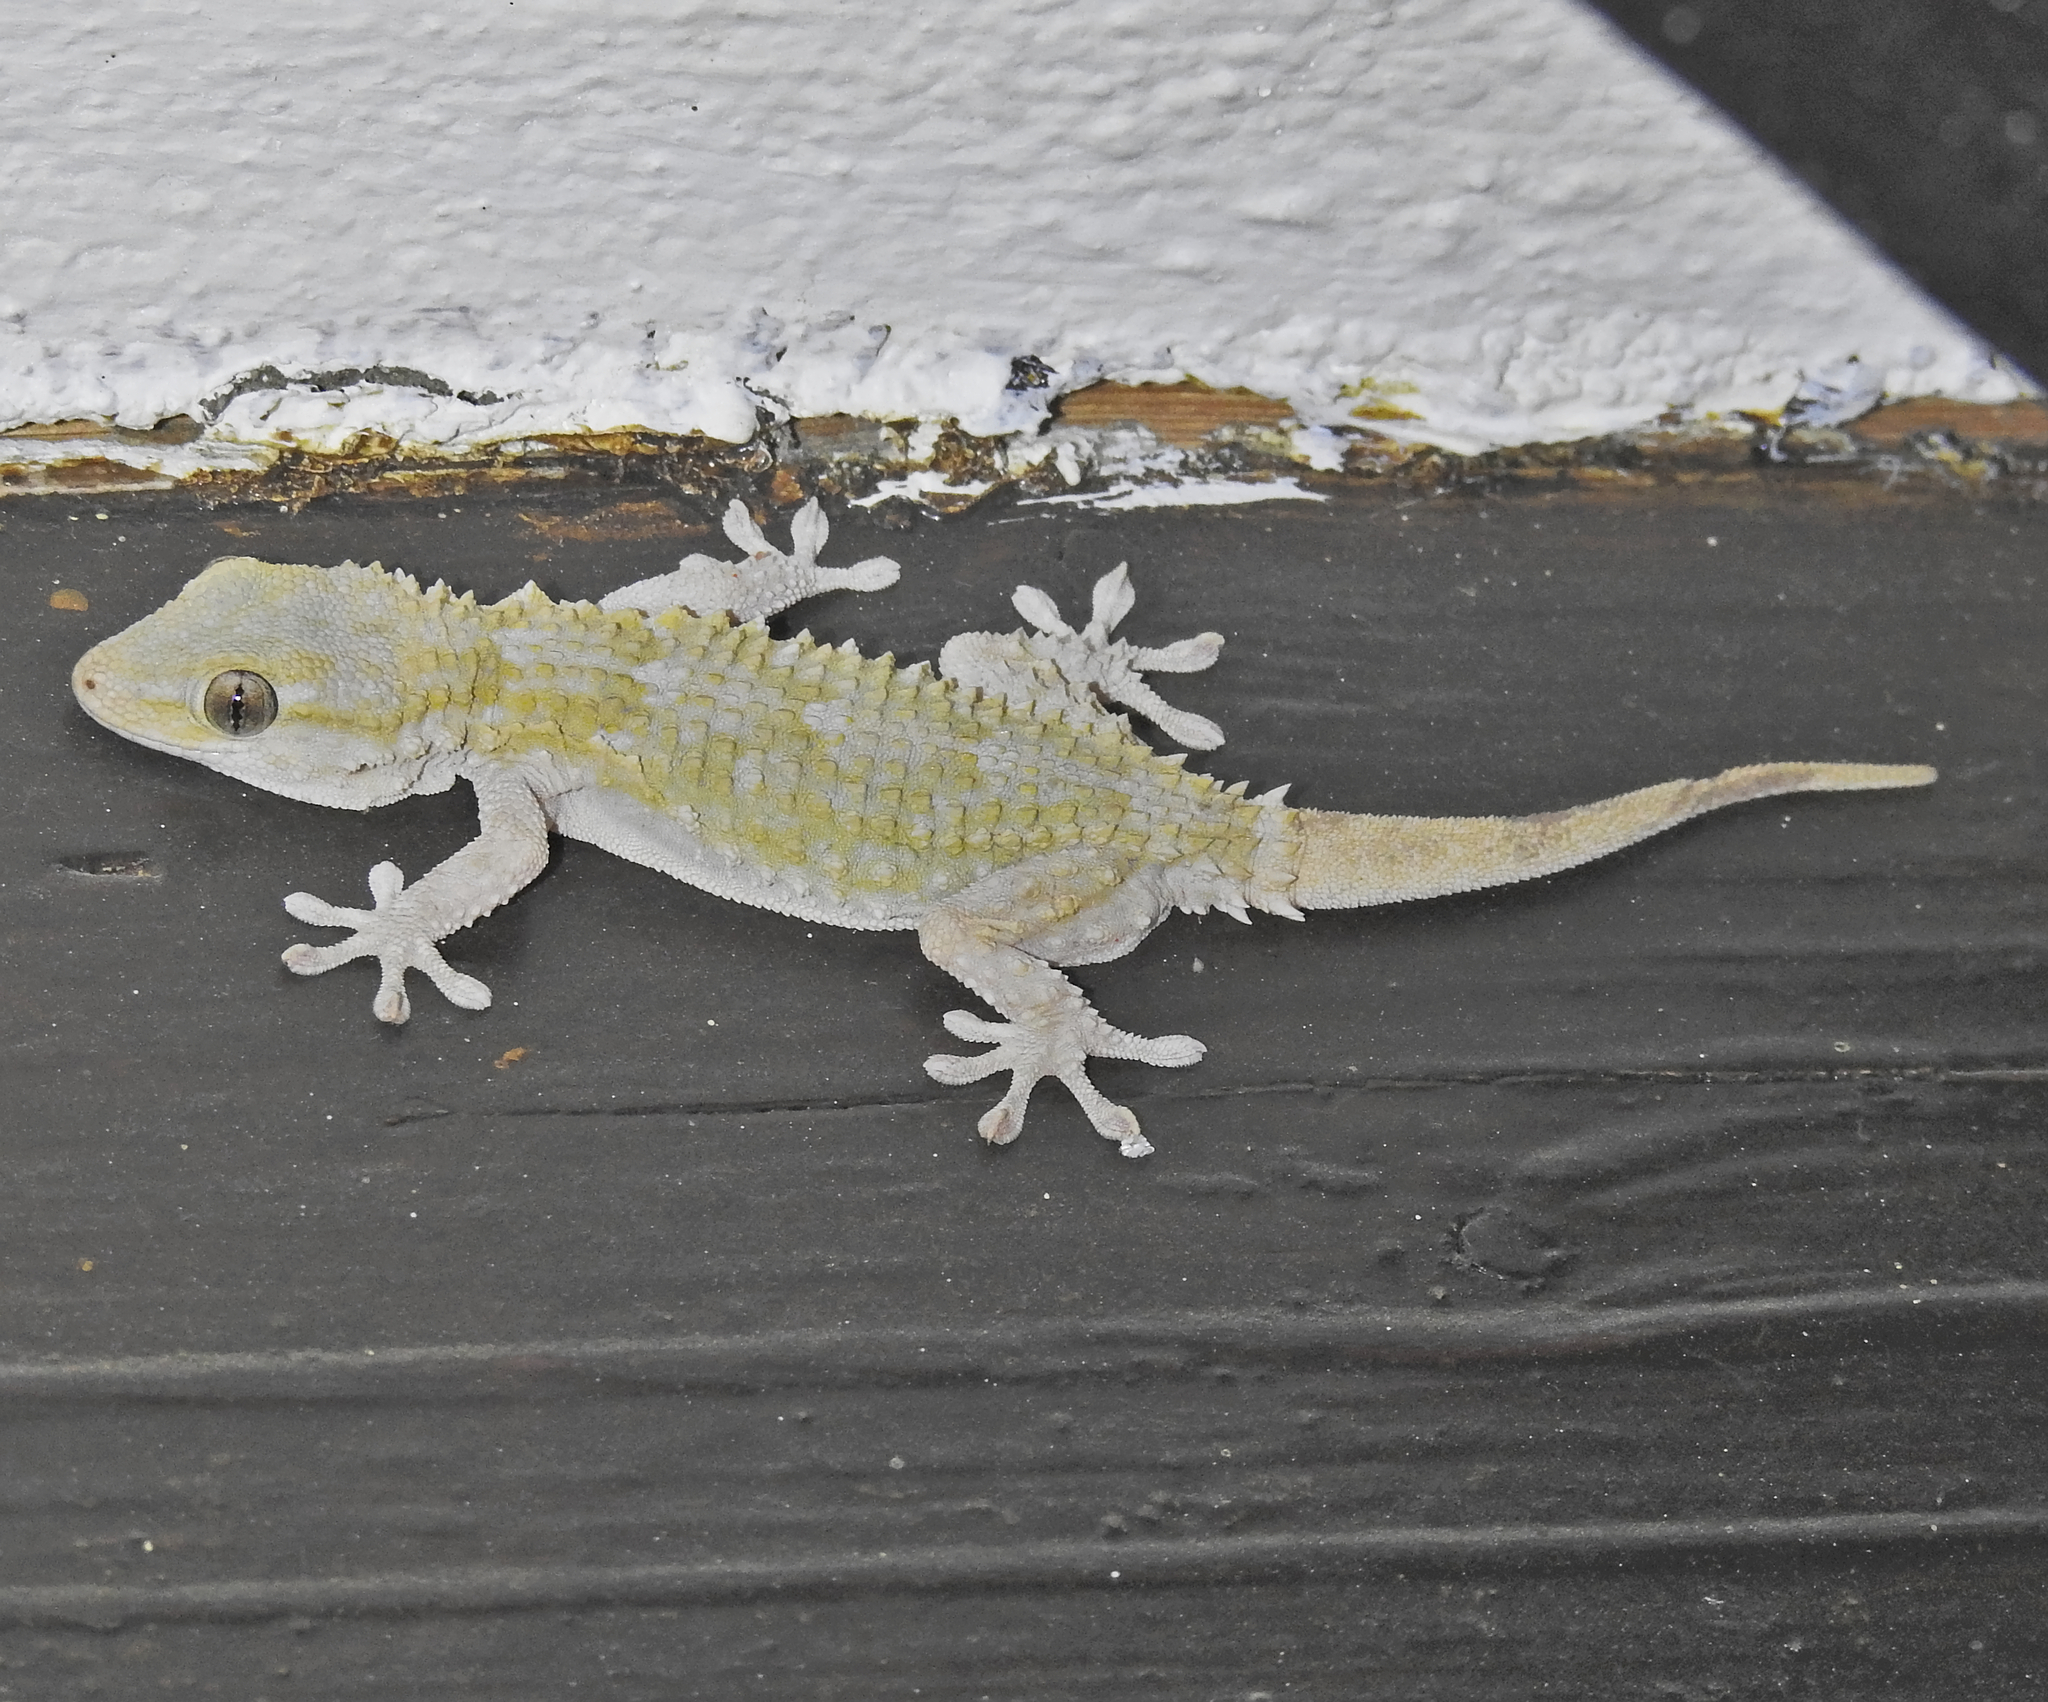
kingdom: Animalia
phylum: Chordata
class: Squamata
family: Phyllodactylidae
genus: Tarentola
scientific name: Tarentola mauritanica
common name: Moorish gecko
